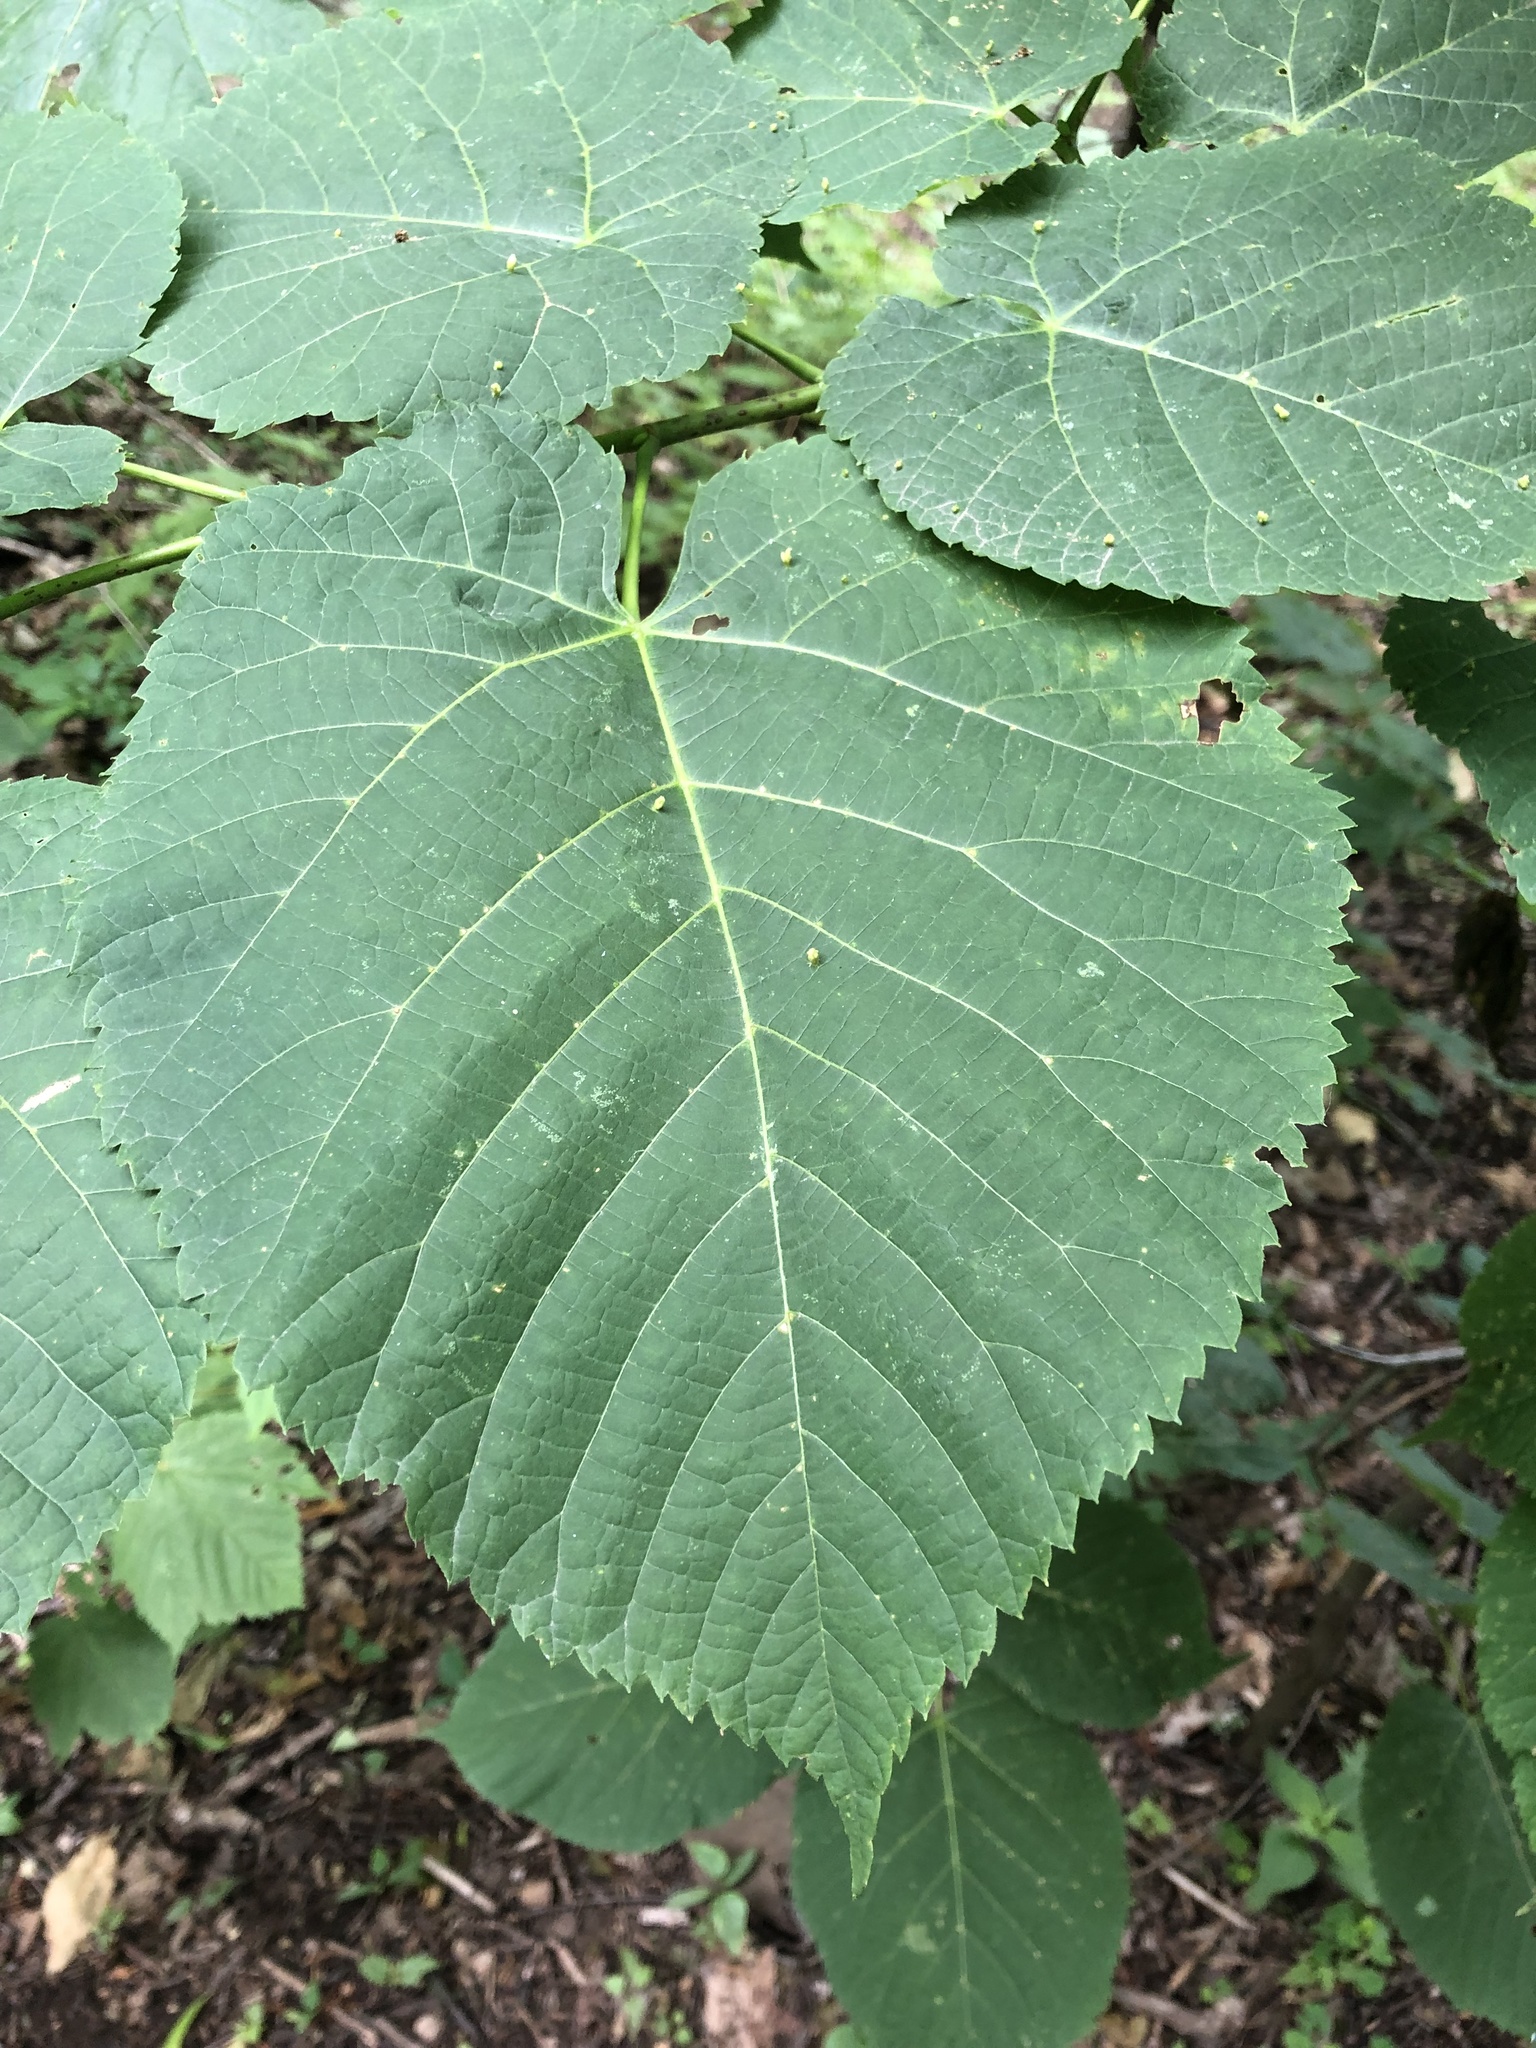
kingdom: Plantae
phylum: Tracheophyta
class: Magnoliopsida
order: Malvales
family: Malvaceae
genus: Tilia
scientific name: Tilia americana
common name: Basswood
